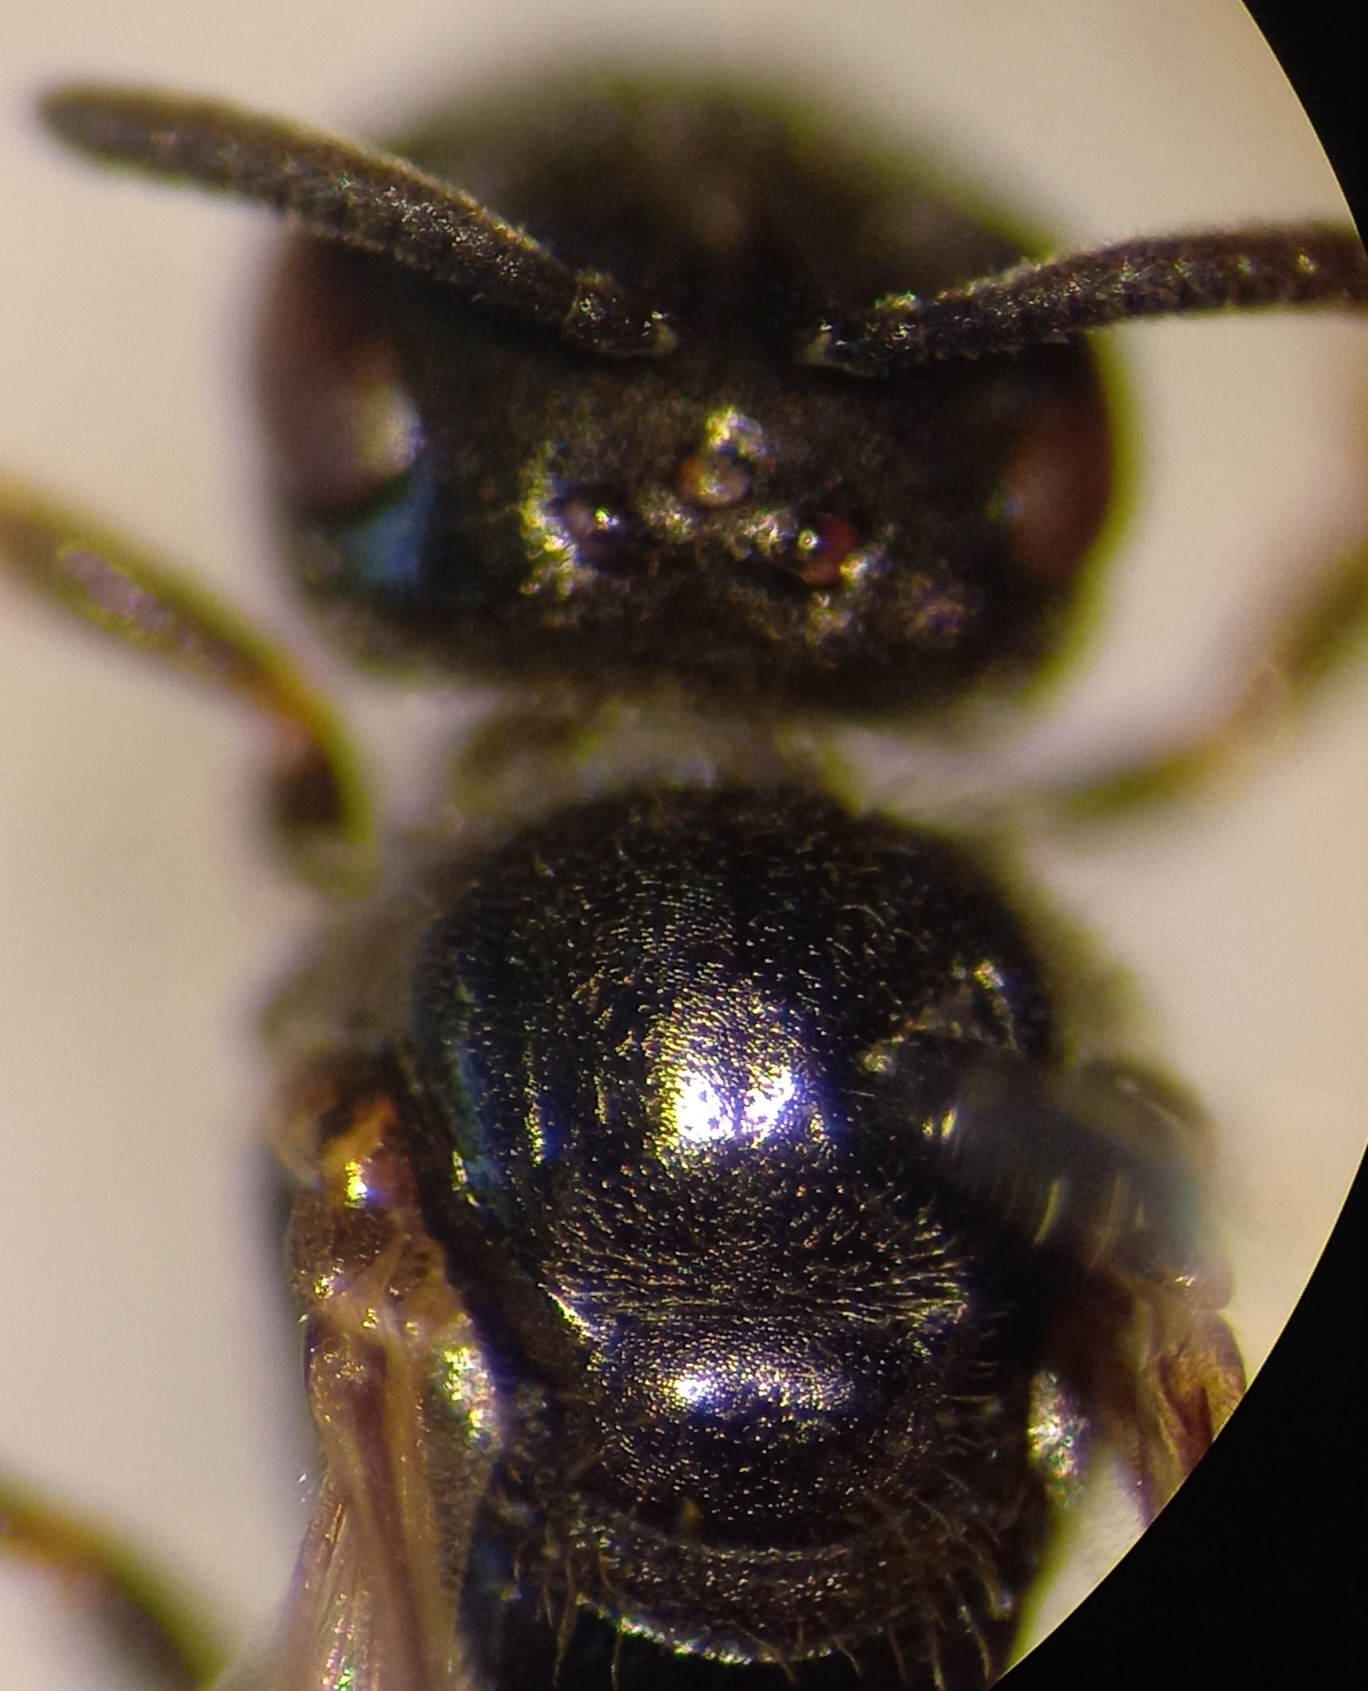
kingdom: Animalia
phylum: Arthropoda
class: Insecta
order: Hymenoptera
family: Halictidae
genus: Lasioglossum
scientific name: Lasioglossum politum
